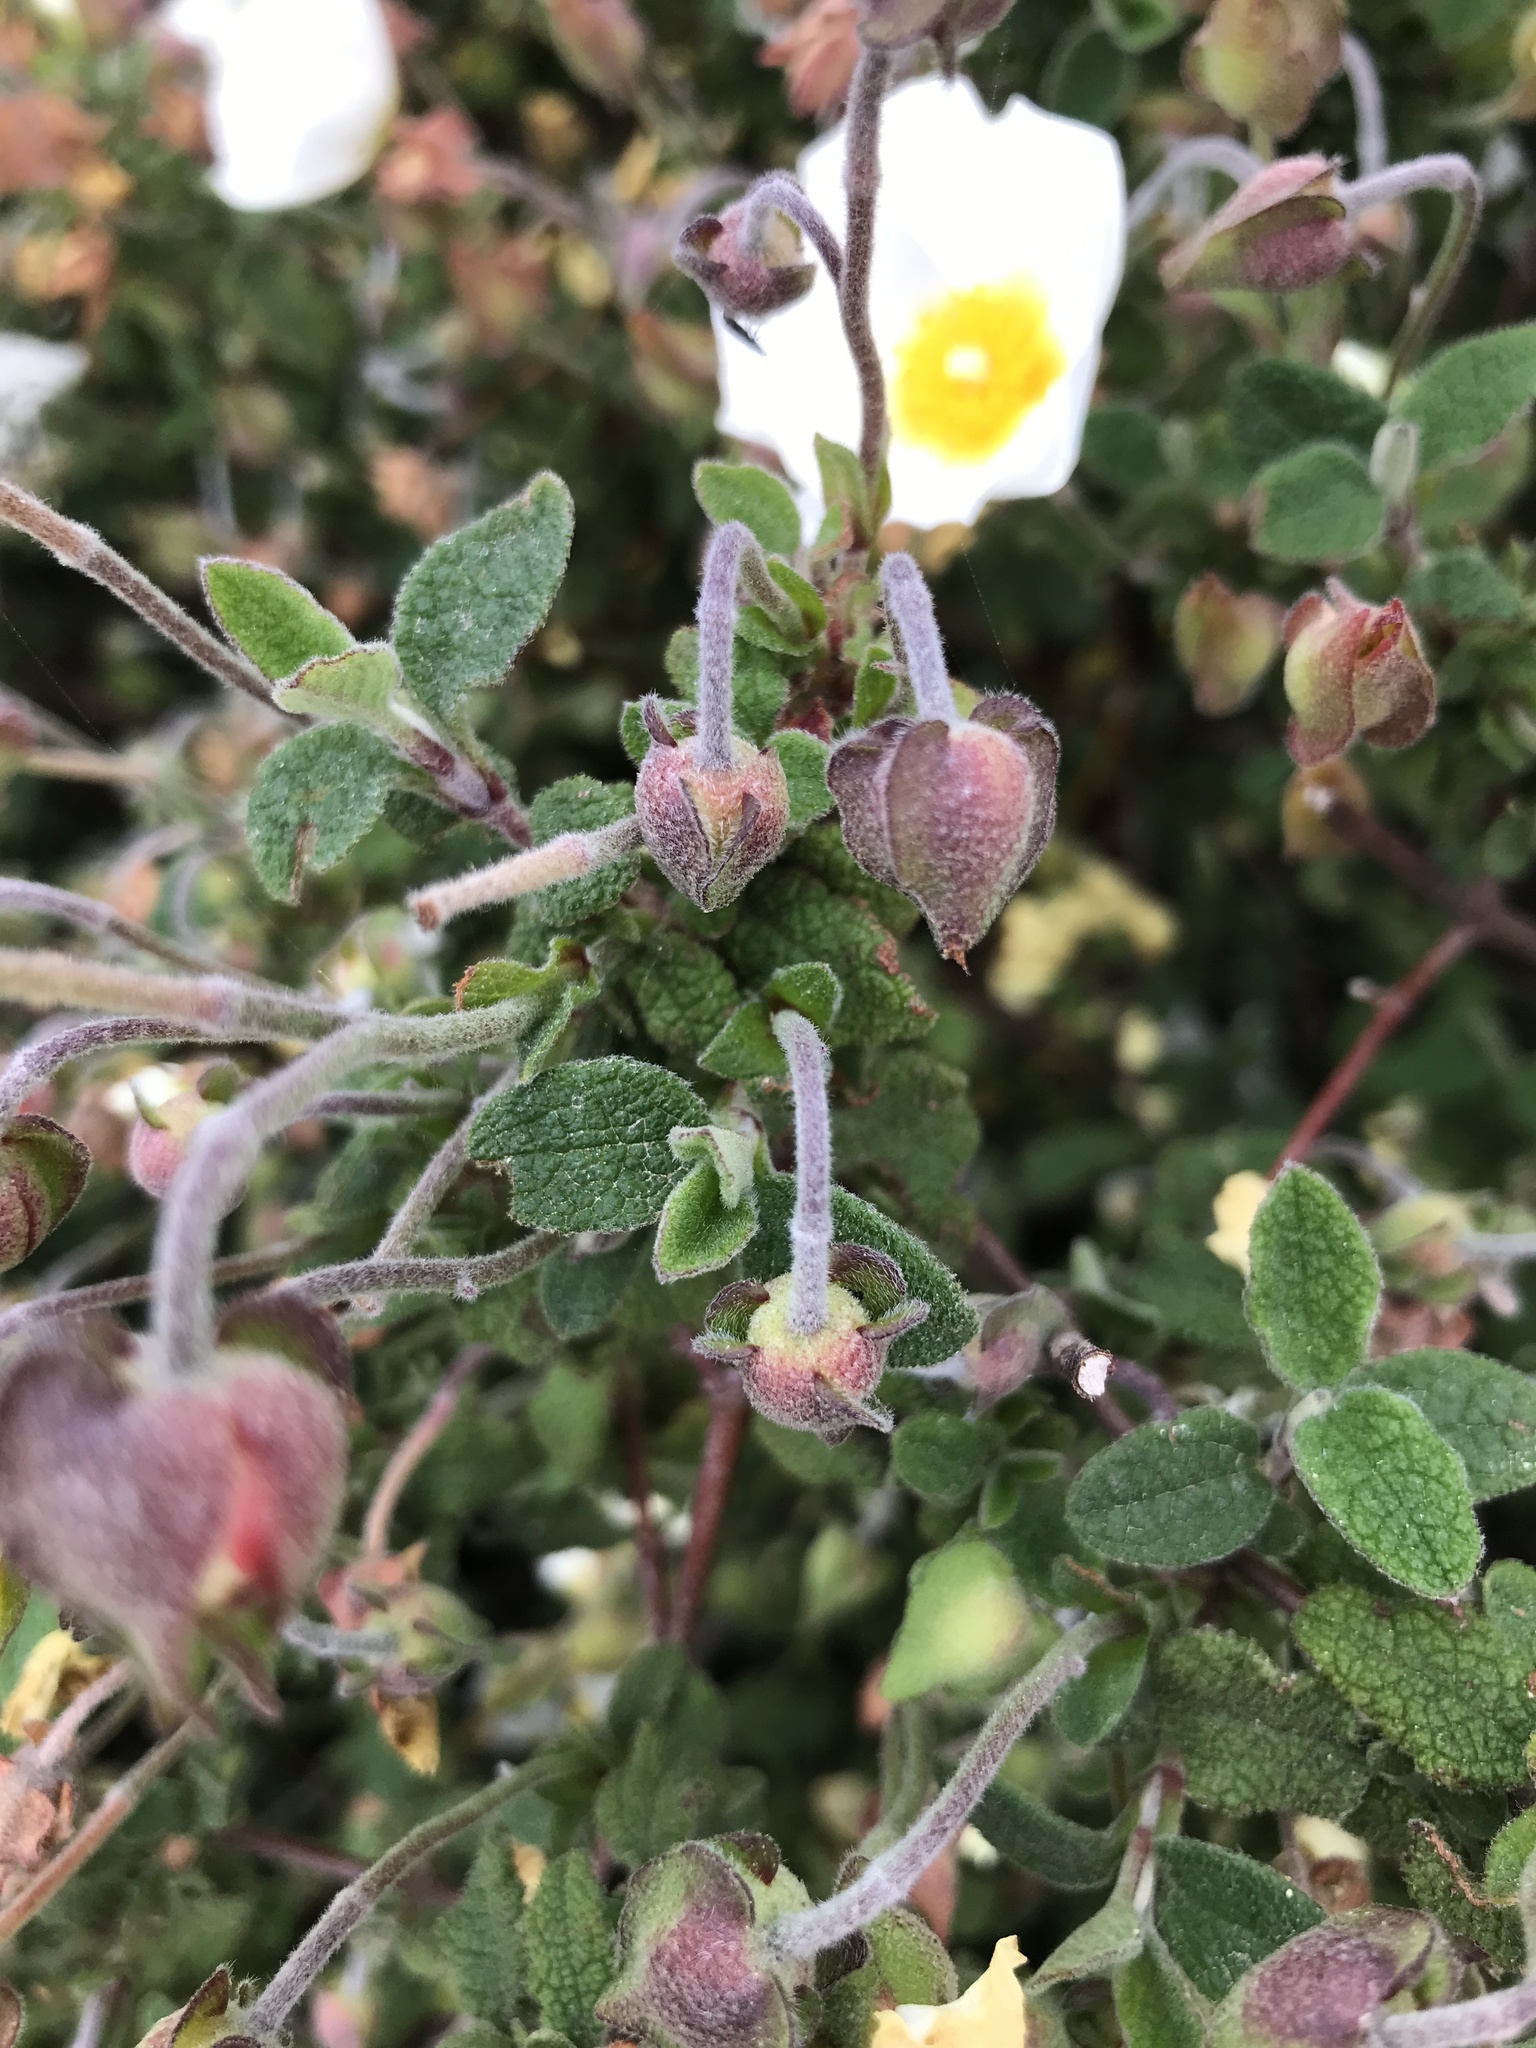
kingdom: Plantae
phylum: Tracheophyta
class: Magnoliopsida
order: Malvales
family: Cistaceae
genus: Cistus
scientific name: Cistus salviifolius
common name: Salvia cistus
